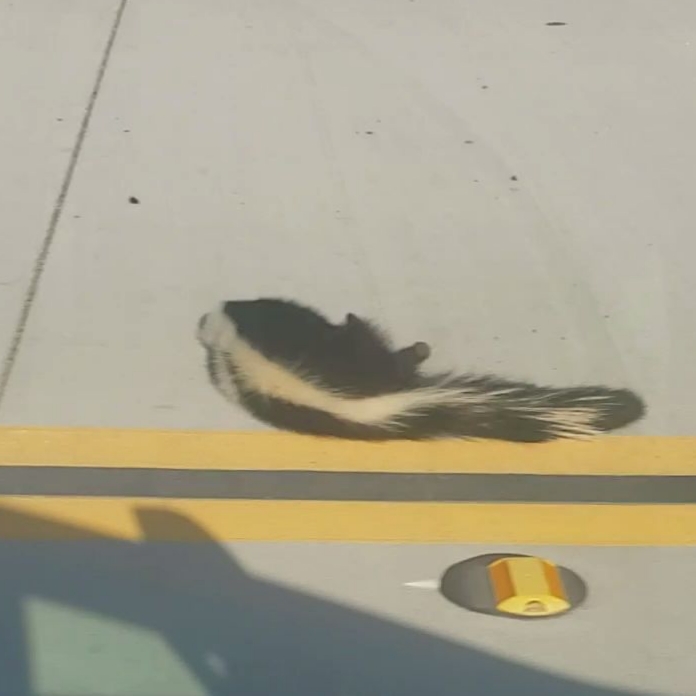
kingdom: Animalia
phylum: Chordata
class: Mammalia
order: Carnivora
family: Mephitidae
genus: Mephitis
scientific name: Mephitis mephitis
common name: Striped skunk
